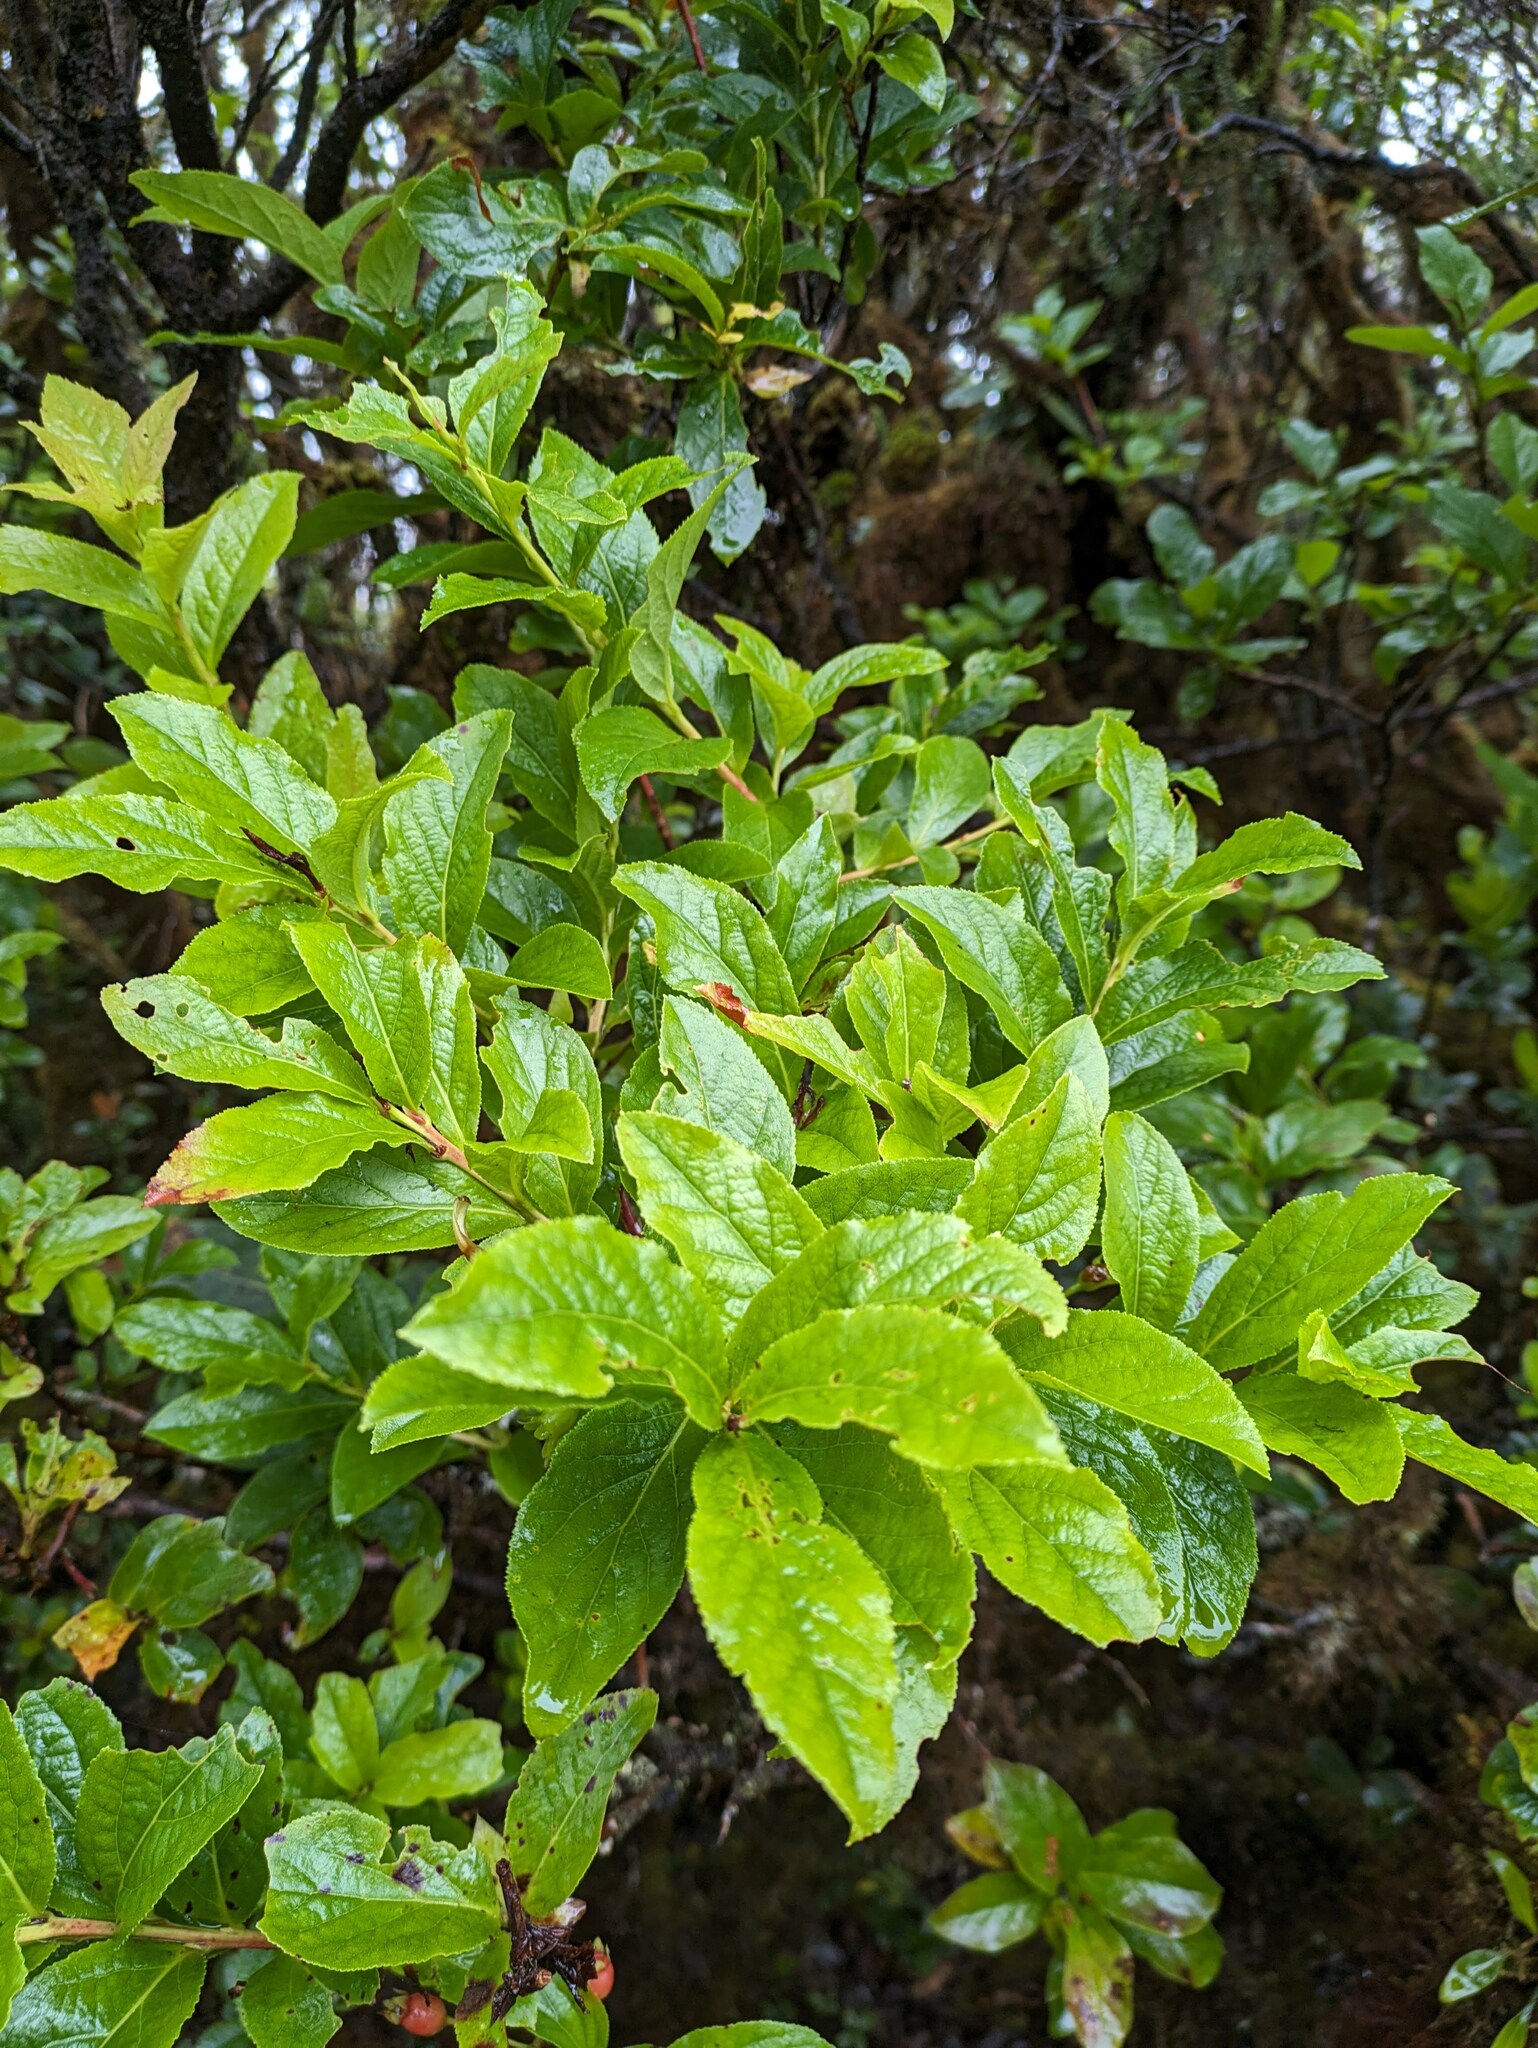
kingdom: Plantae
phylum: Tracheophyta
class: Magnoliopsida
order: Ericales
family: Ericaceae
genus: Vaccinium
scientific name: Vaccinium calycinum
